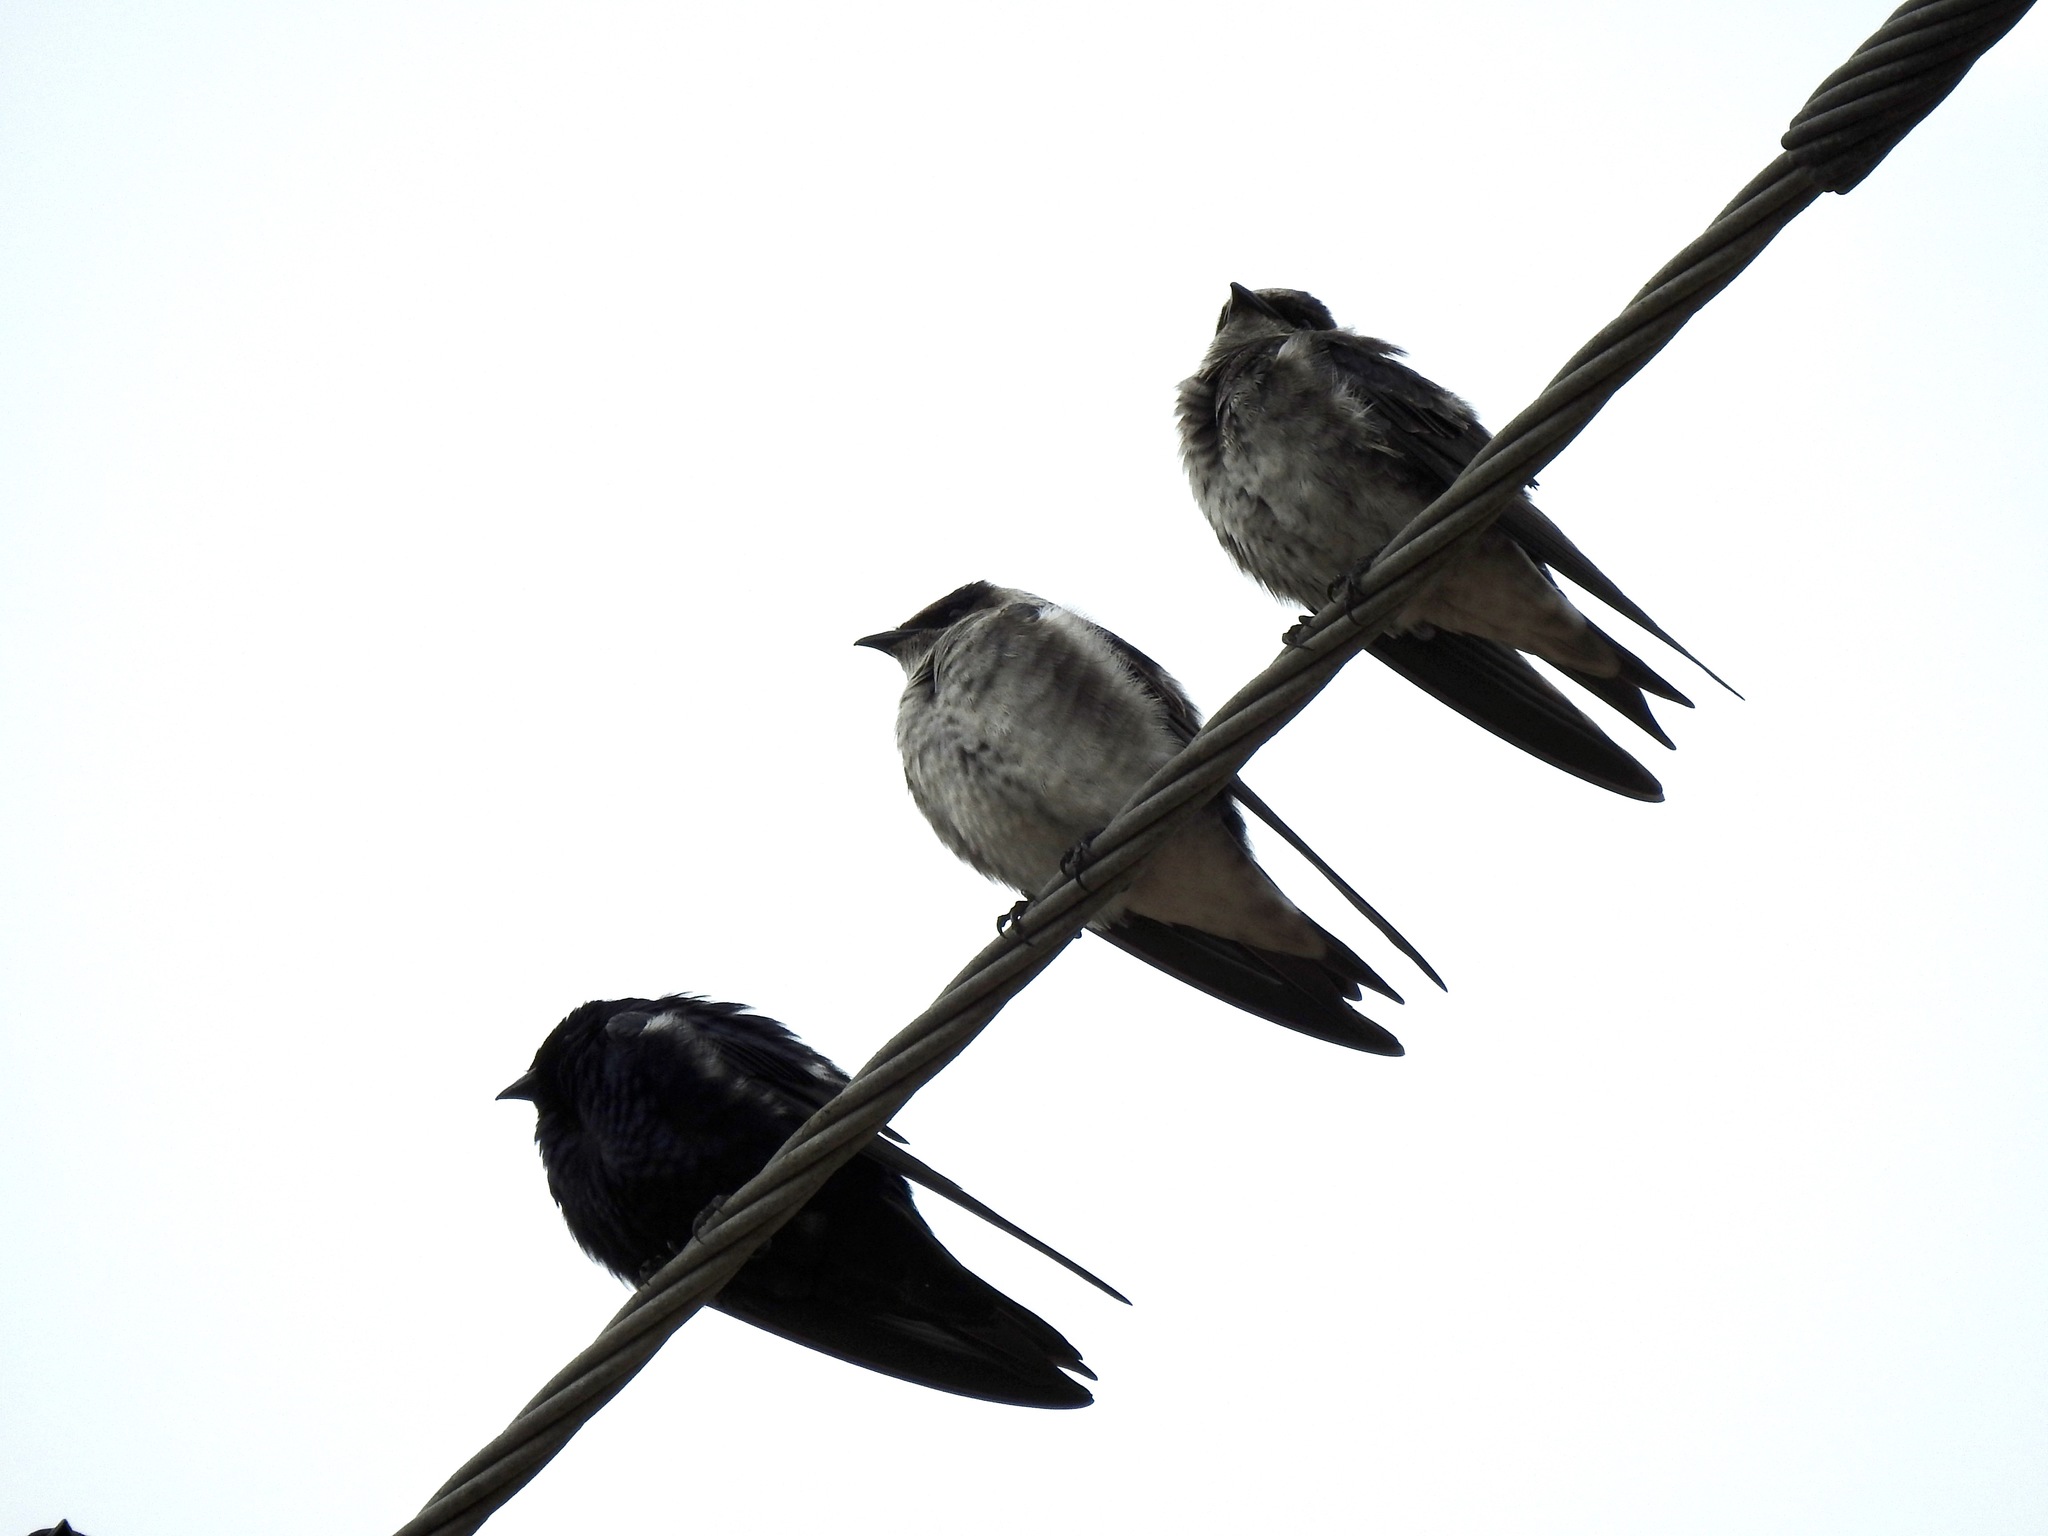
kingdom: Animalia
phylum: Chordata
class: Aves
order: Passeriformes
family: Hirundinidae
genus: Progne
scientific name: Progne subis
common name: Purple martin
